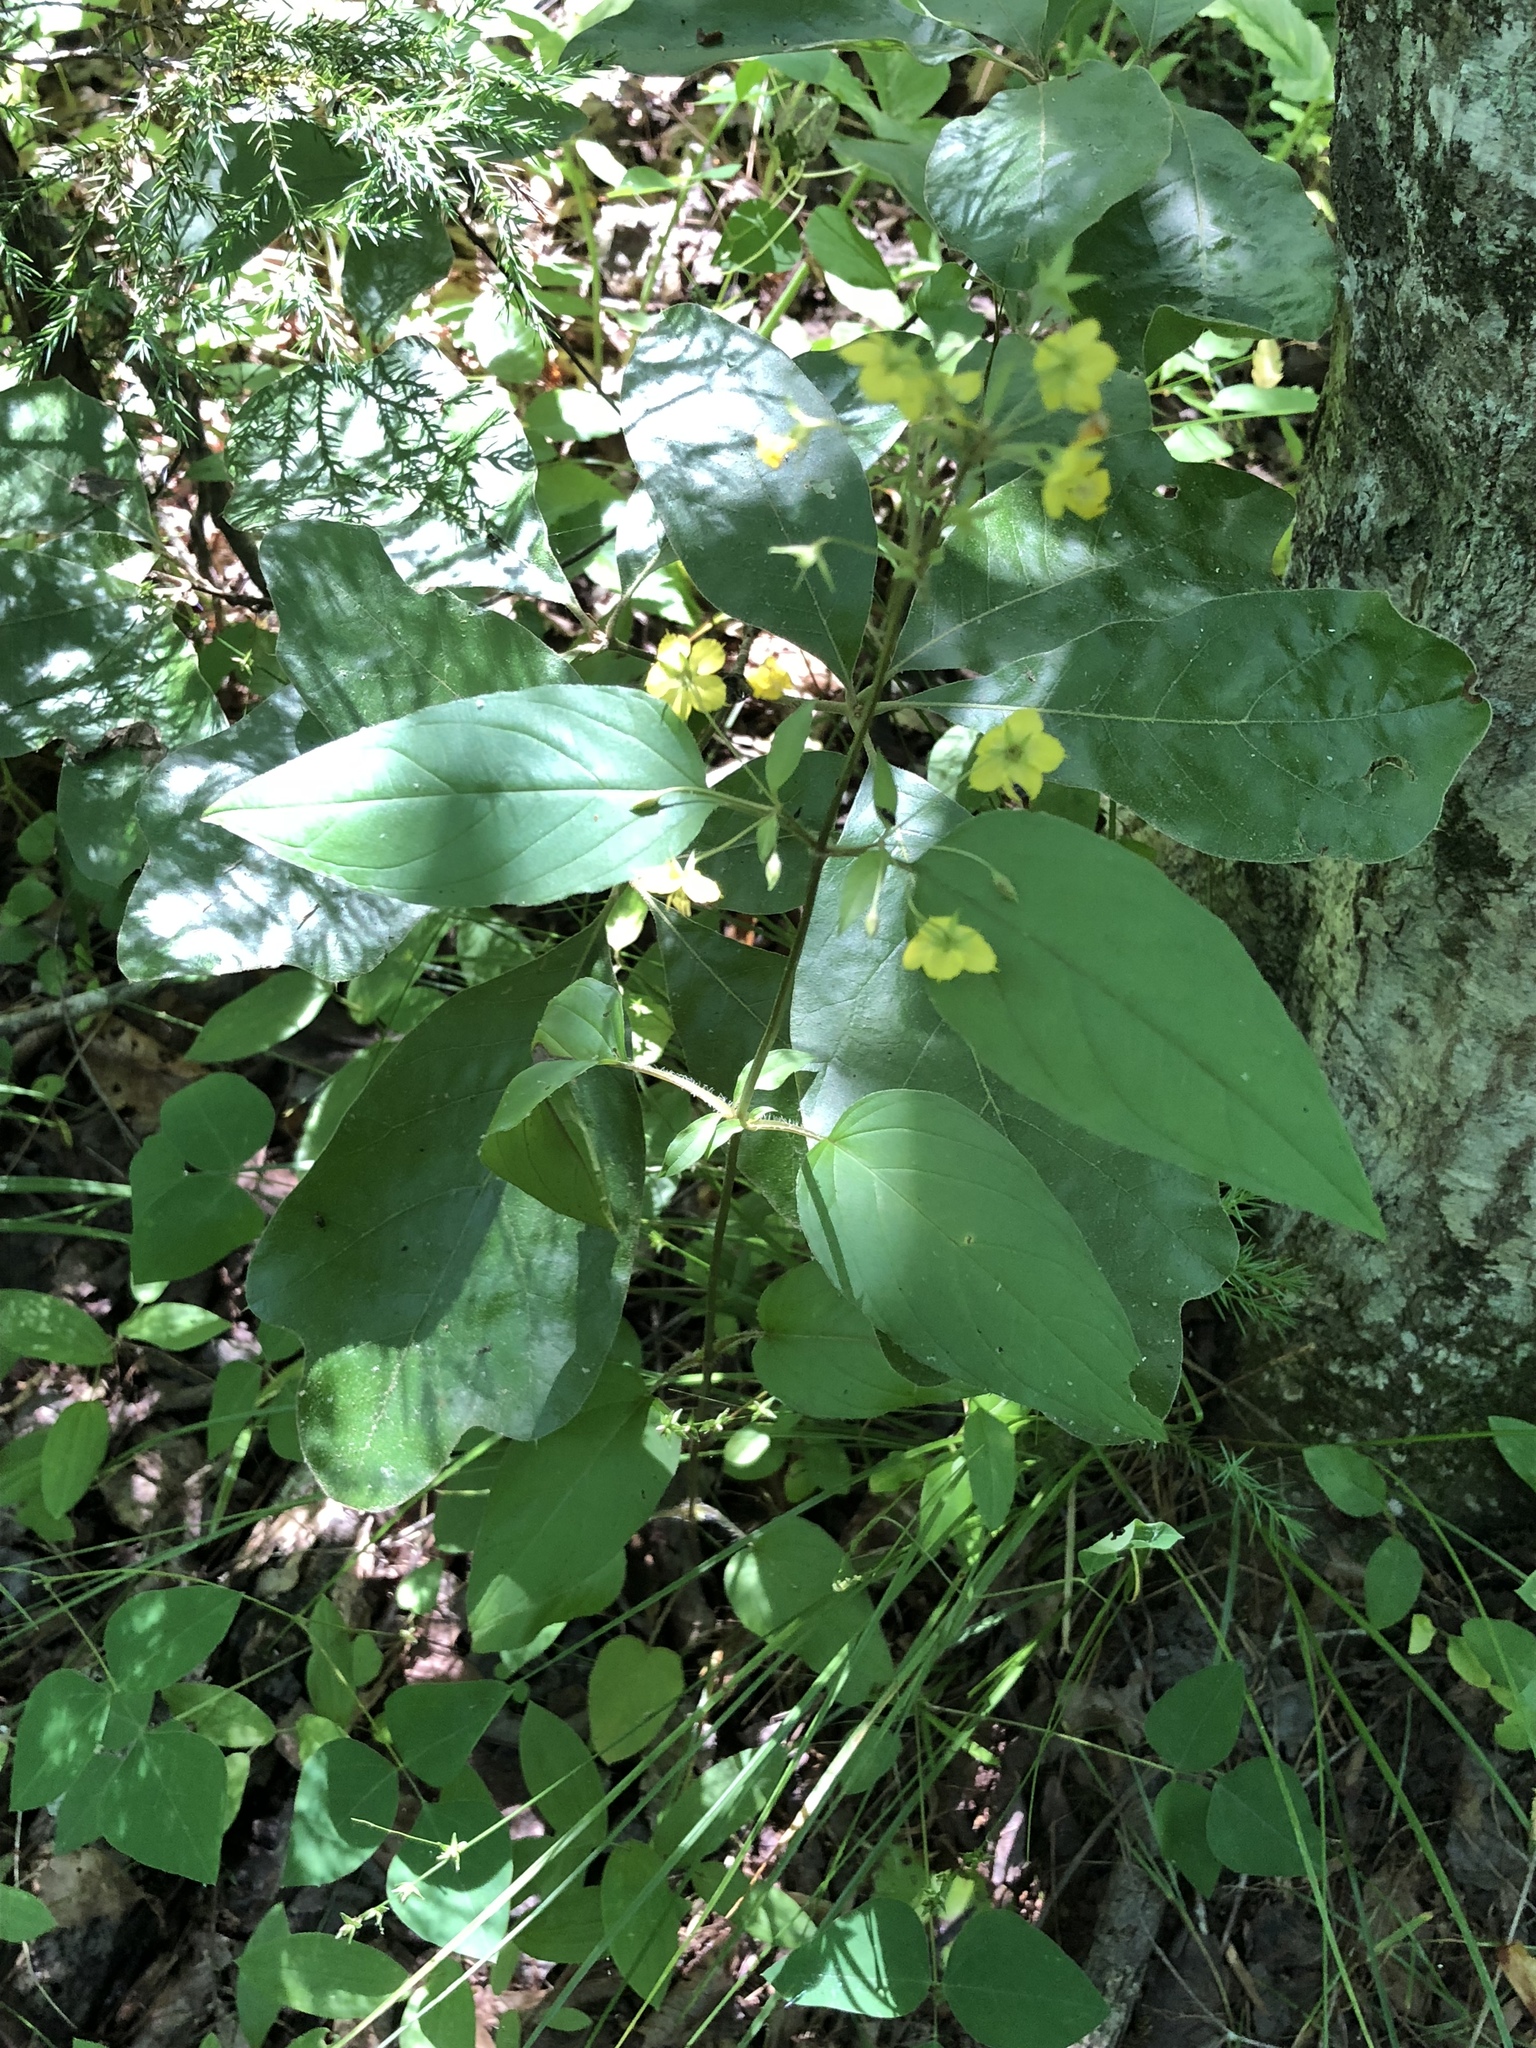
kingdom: Plantae
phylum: Tracheophyta
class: Magnoliopsida
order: Ericales
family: Primulaceae
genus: Lysimachia
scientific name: Lysimachia ciliata
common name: Fringed loosestrife
